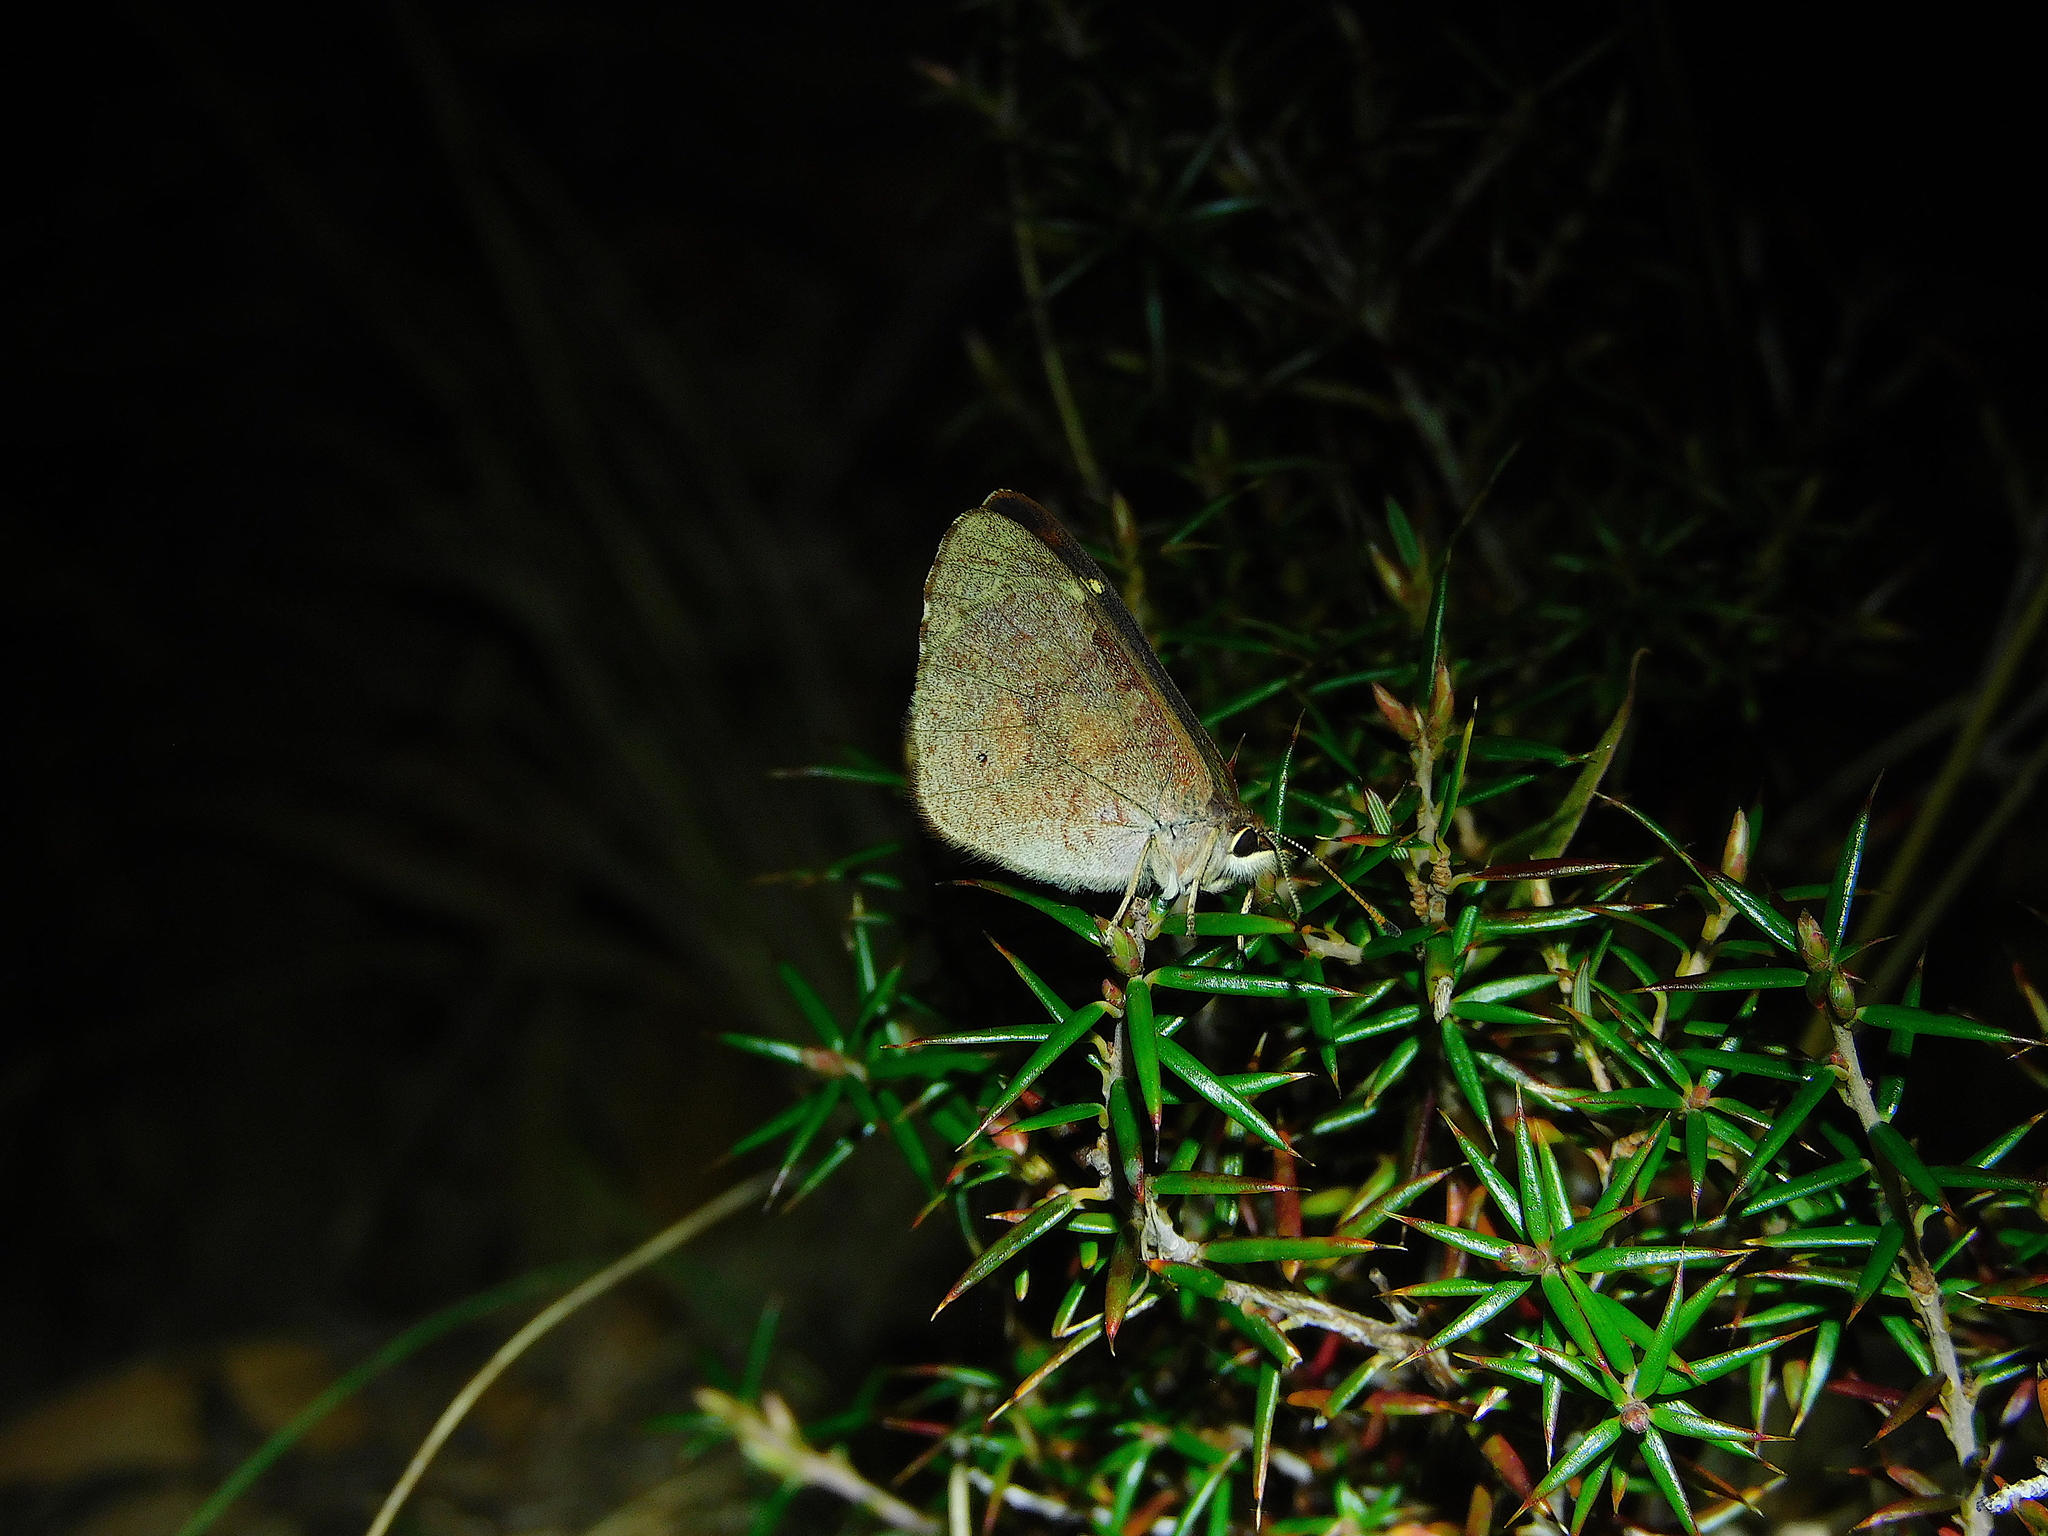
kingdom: Animalia
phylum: Arthropoda
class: Insecta
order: Lepidoptera
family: Nymphalidae
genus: Argynnina
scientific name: Argynnina hobartia
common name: Hobart brown
